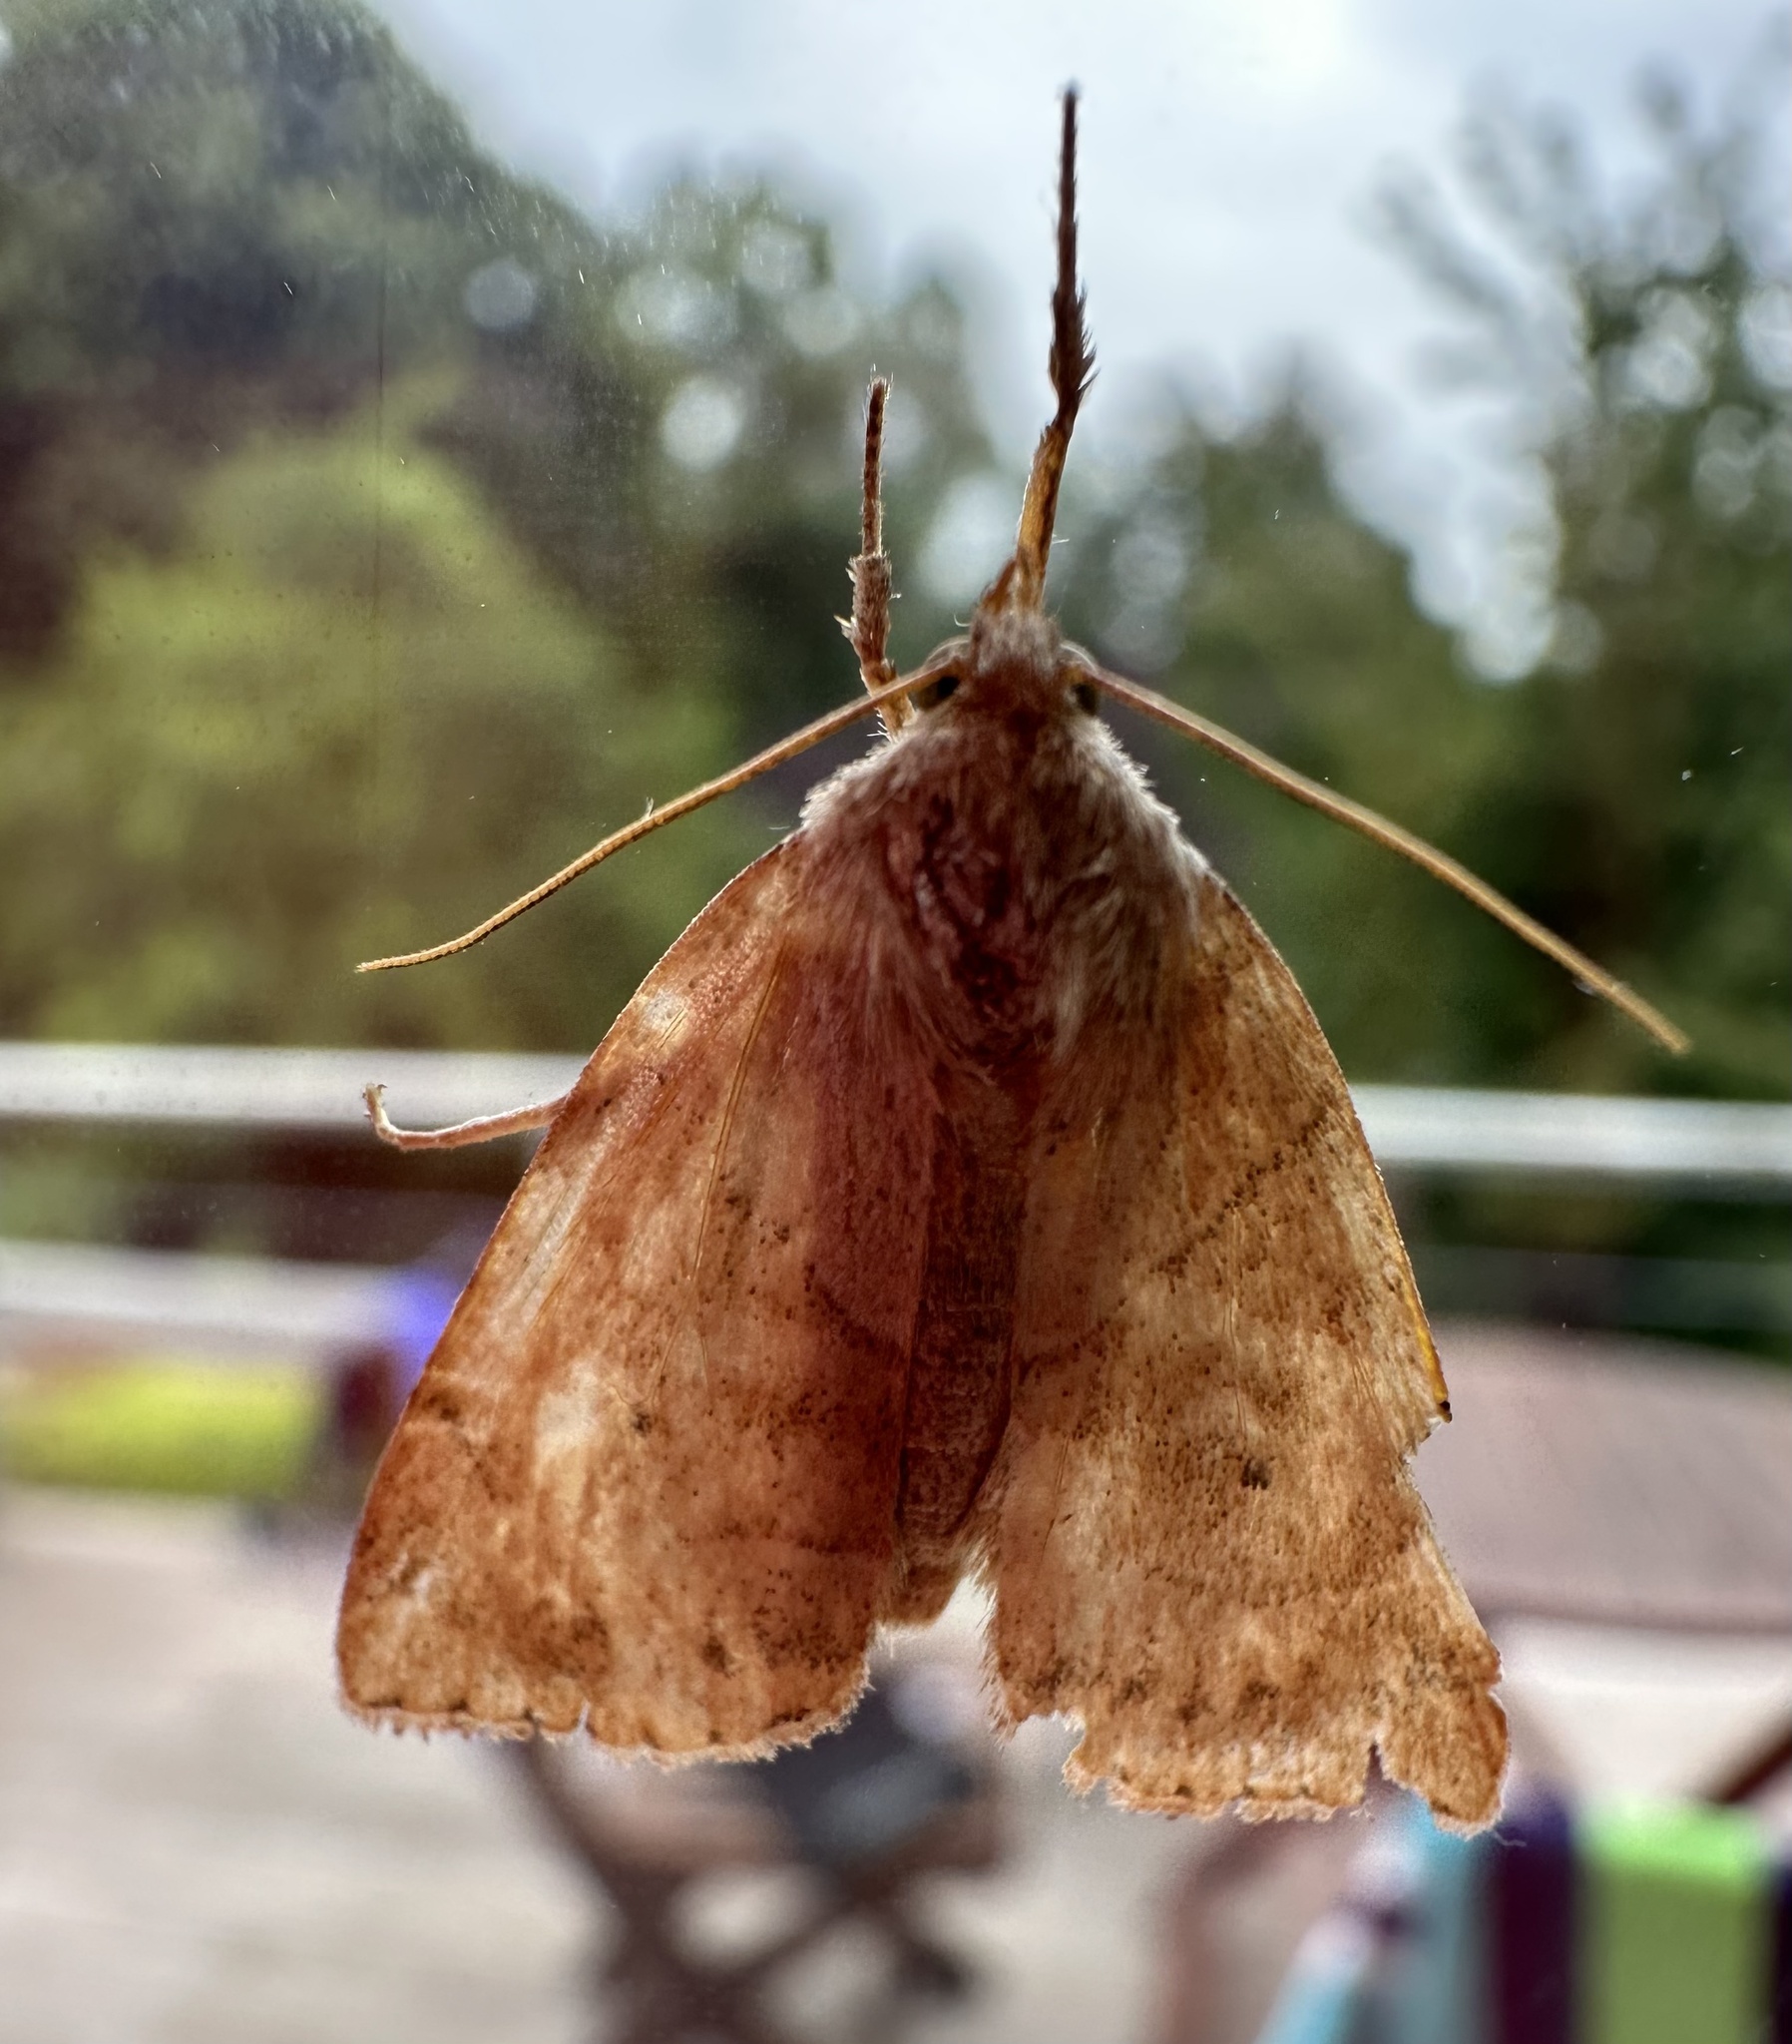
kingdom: Animalia
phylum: Arthropoda
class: Insecta
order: Lepidoptera
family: Noctuidae
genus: Cosmia
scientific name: Cosmia trapezina
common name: Dun-bar
